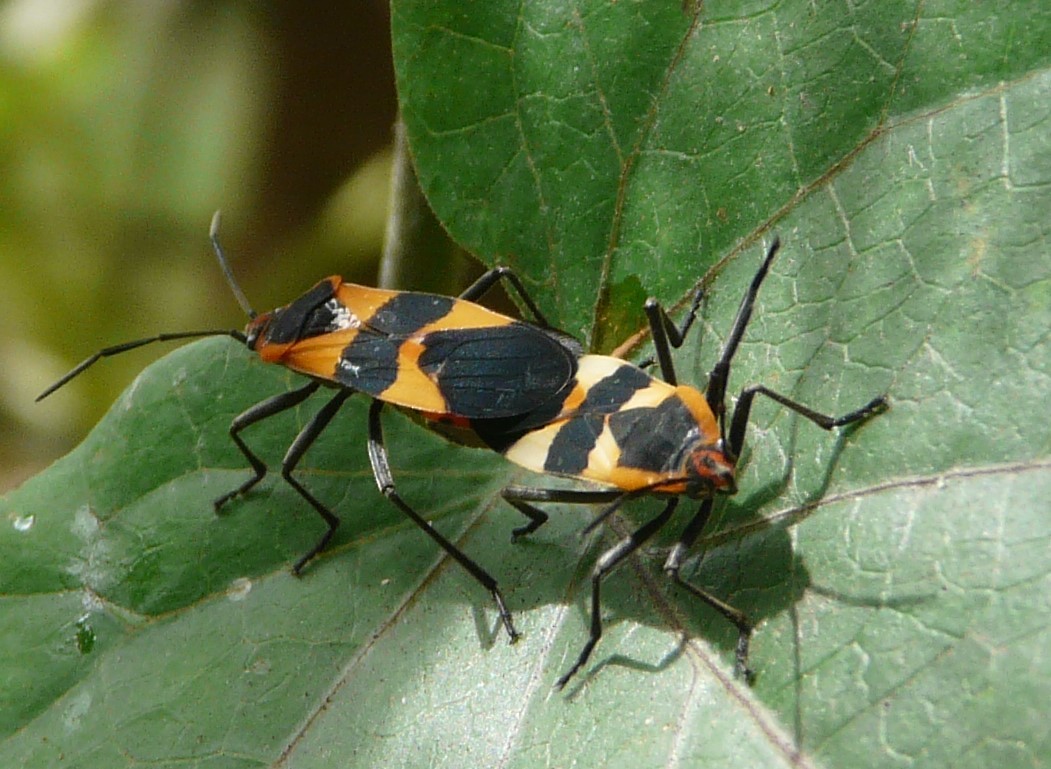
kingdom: Animalia
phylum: Arthropoda
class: Insecta
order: Hemiptera
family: Lygaeidae
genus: Oncopeltus
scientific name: Oncopeltus fasciatus
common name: Large milkweed bug
